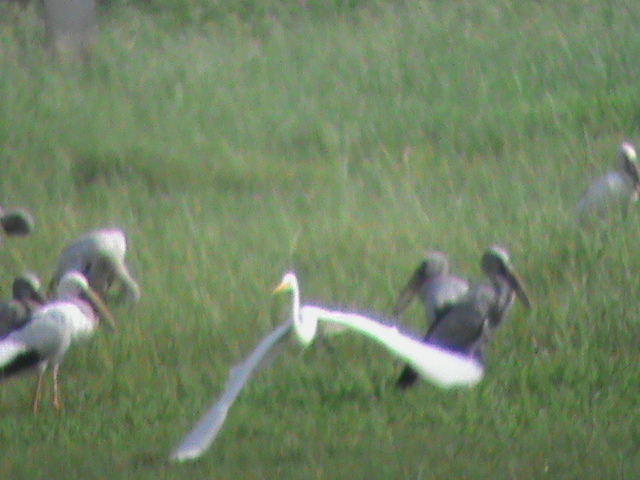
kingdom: Animalia
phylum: Chordata
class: Aves
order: Pelecaniformes
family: Ardeidae
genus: Egretta
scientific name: Egretta intermedia
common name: Intermediate egret
